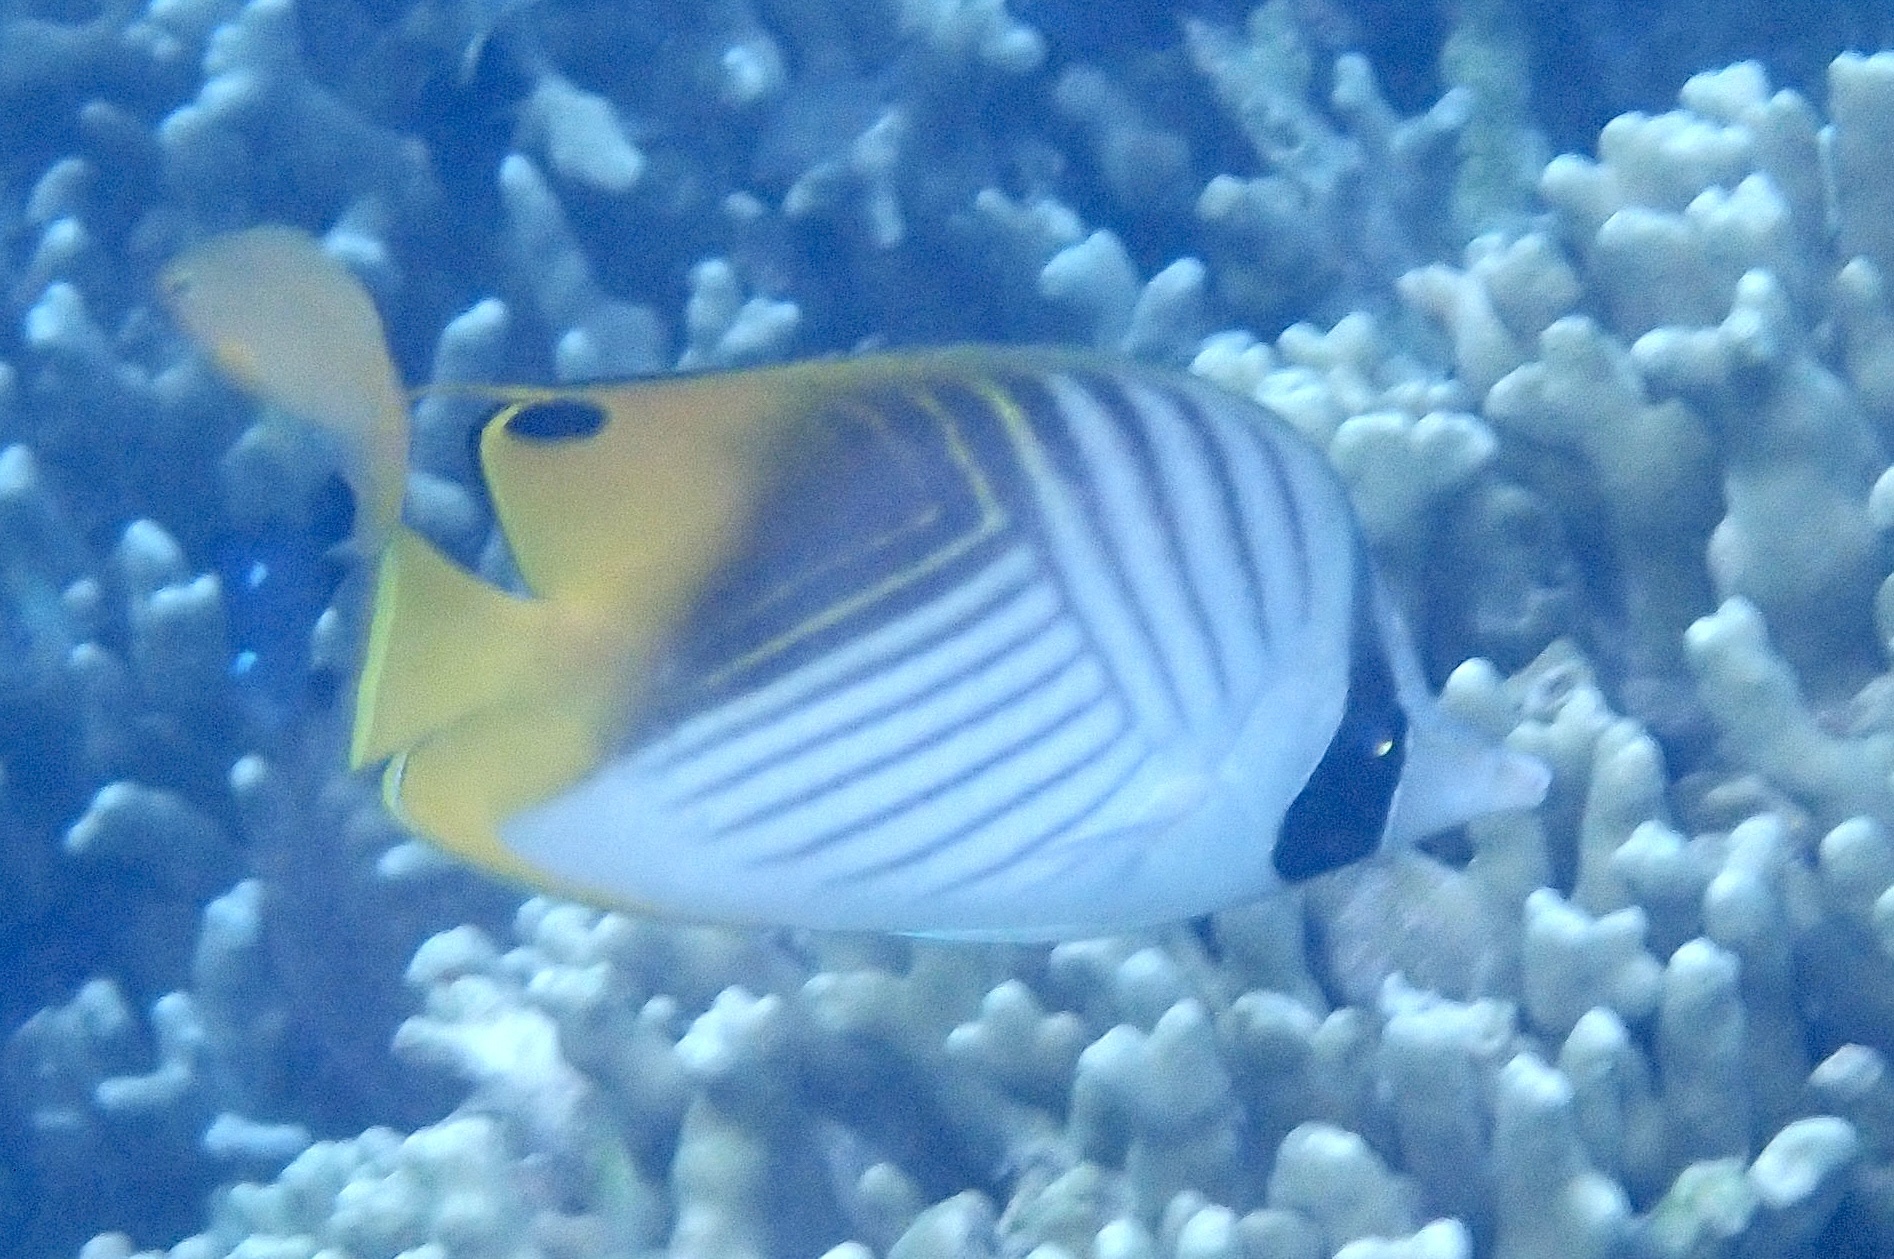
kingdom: Animalia
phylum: Chordata
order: Perciformes
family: Chaetodontidae
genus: Chaetodon
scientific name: Chaetodon auriga
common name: Threadfin butterflyfish
